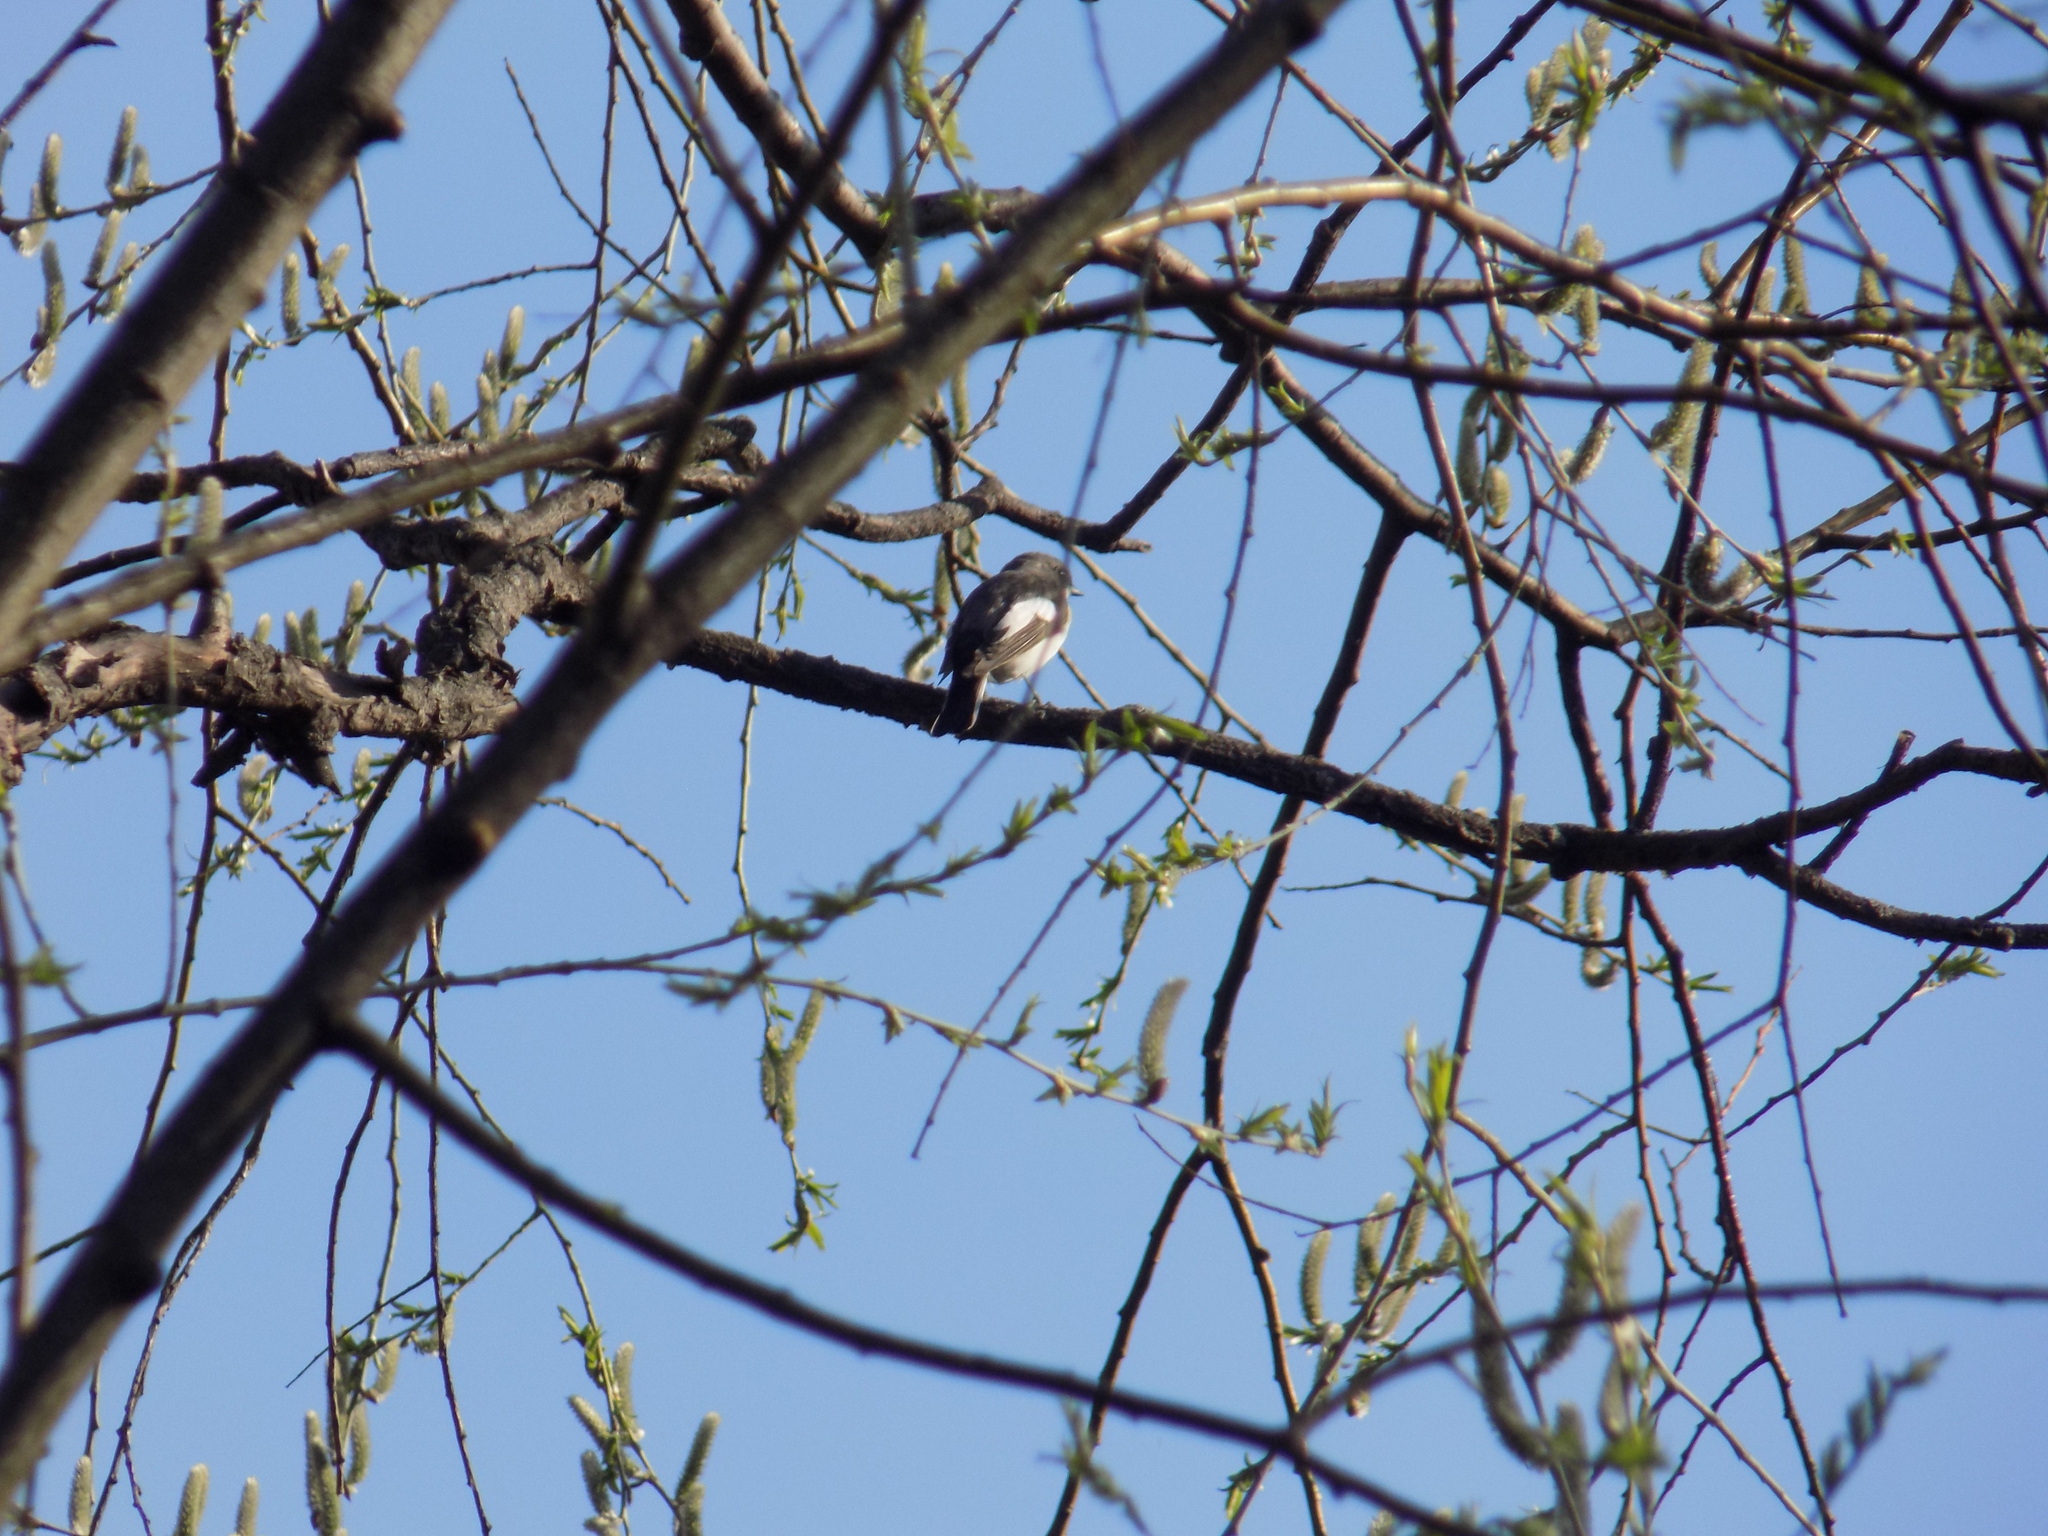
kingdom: Animalia
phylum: Chordata
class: Aves
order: Passeriformes
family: Muscicapidae
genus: Ficedula
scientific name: Ficedula hypoleuca
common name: European pied flycatcher
